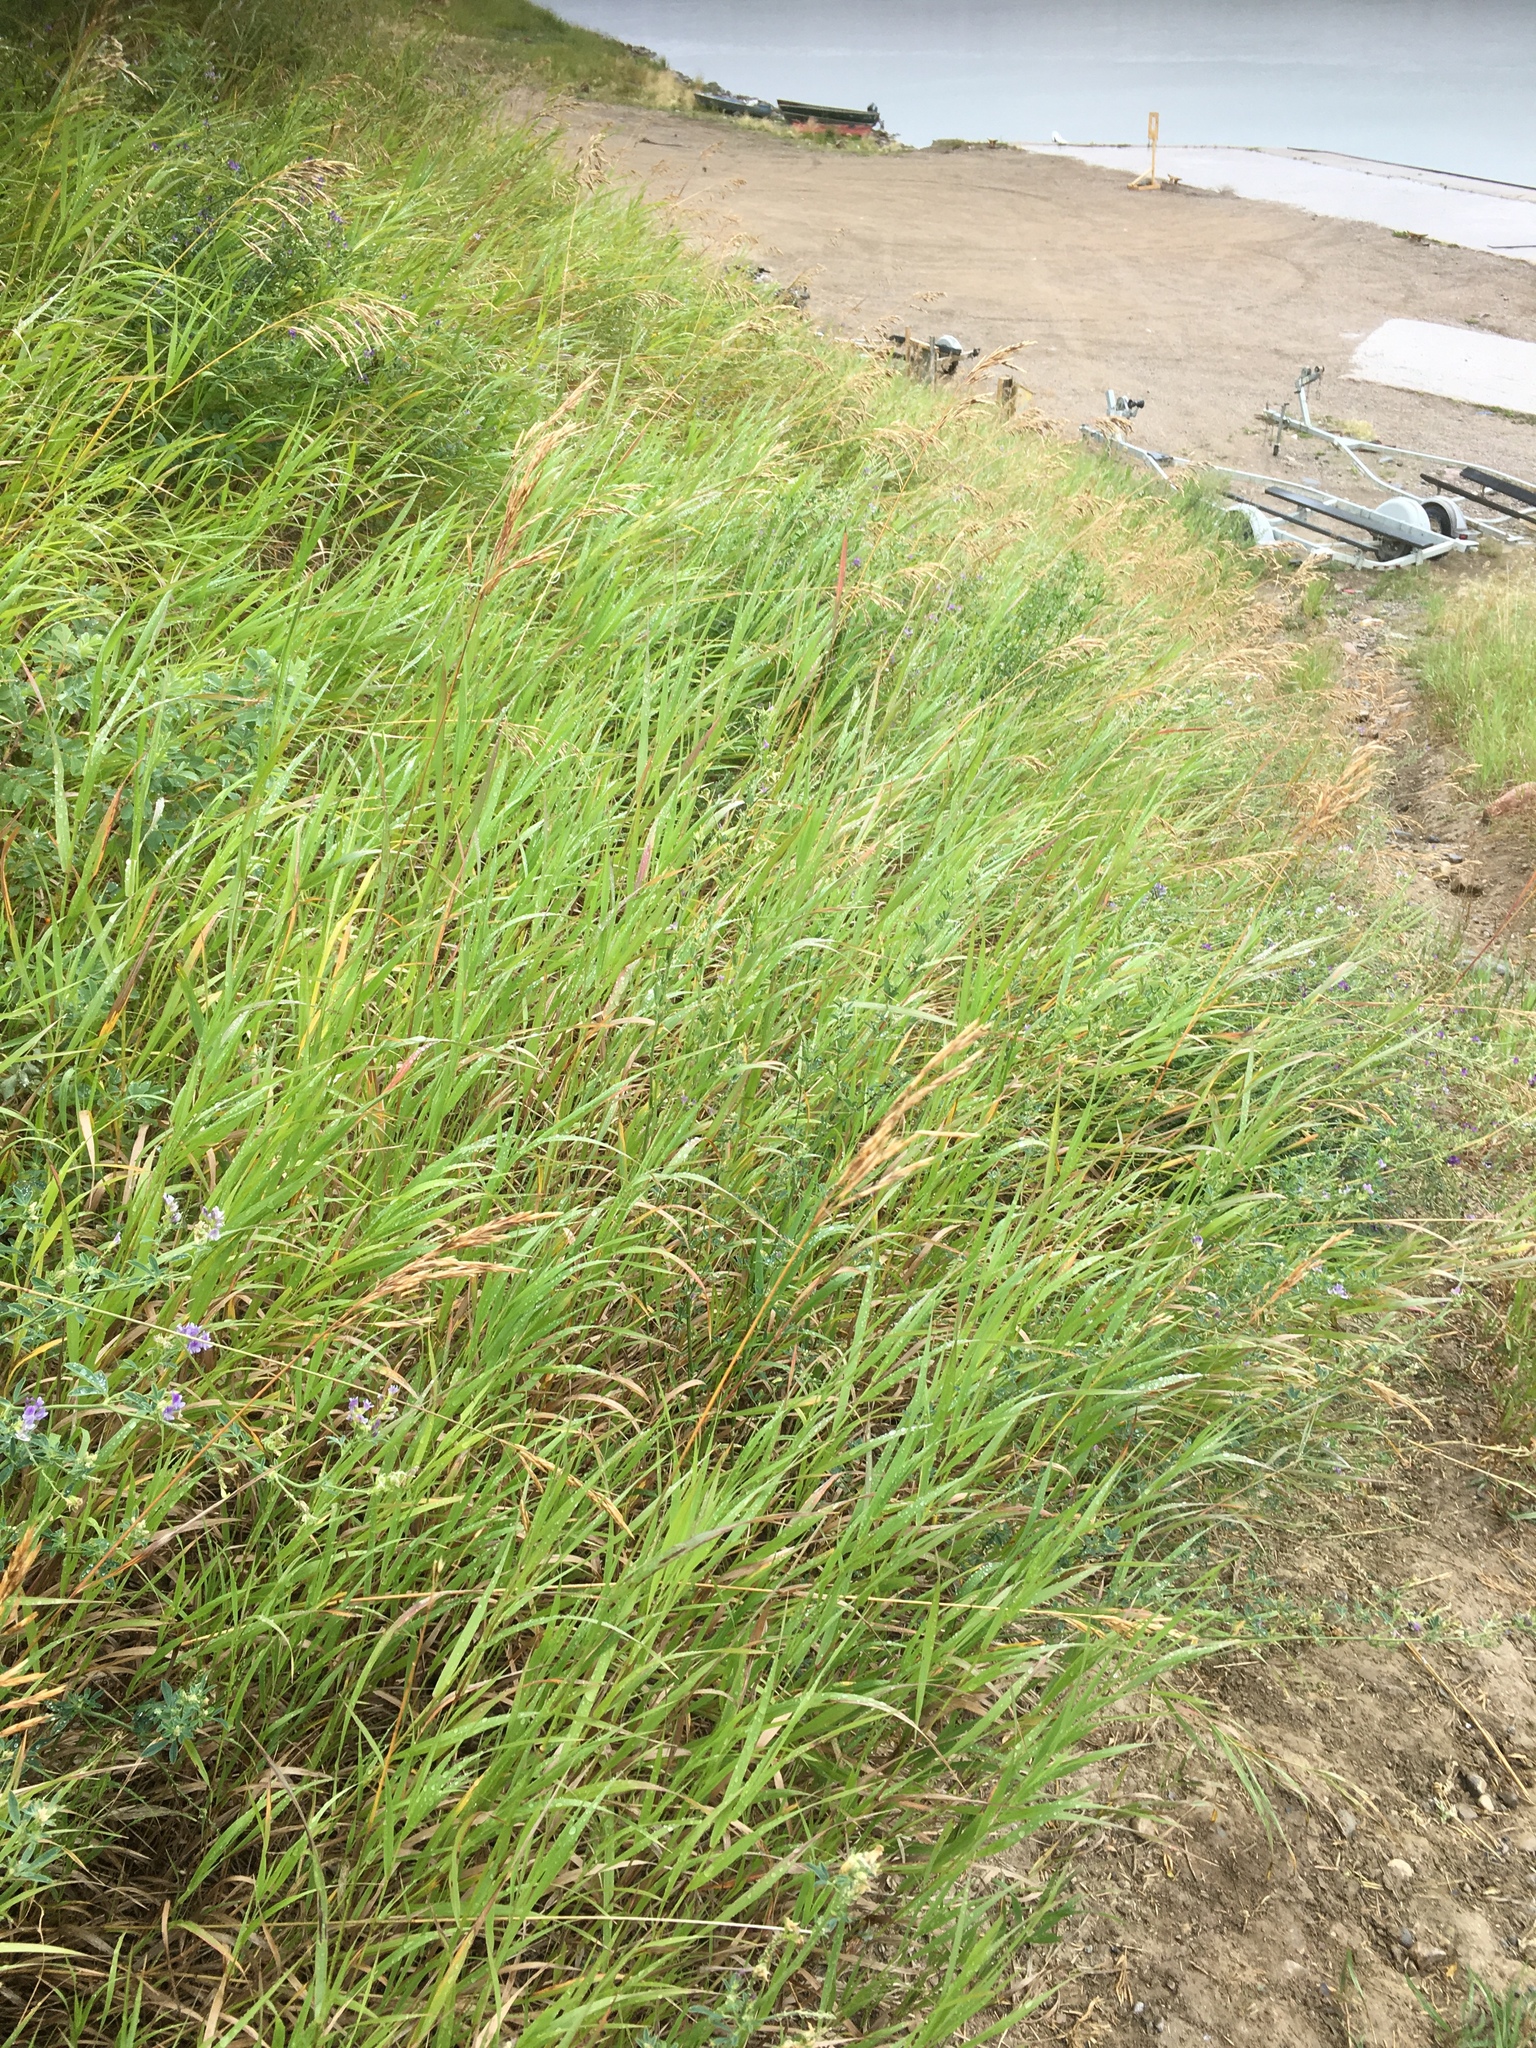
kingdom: Plantae
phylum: Tracheophyta
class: Liliopsida
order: Poales
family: Poaceae
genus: Bromus
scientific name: Bromus inermis
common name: Smooth brome
